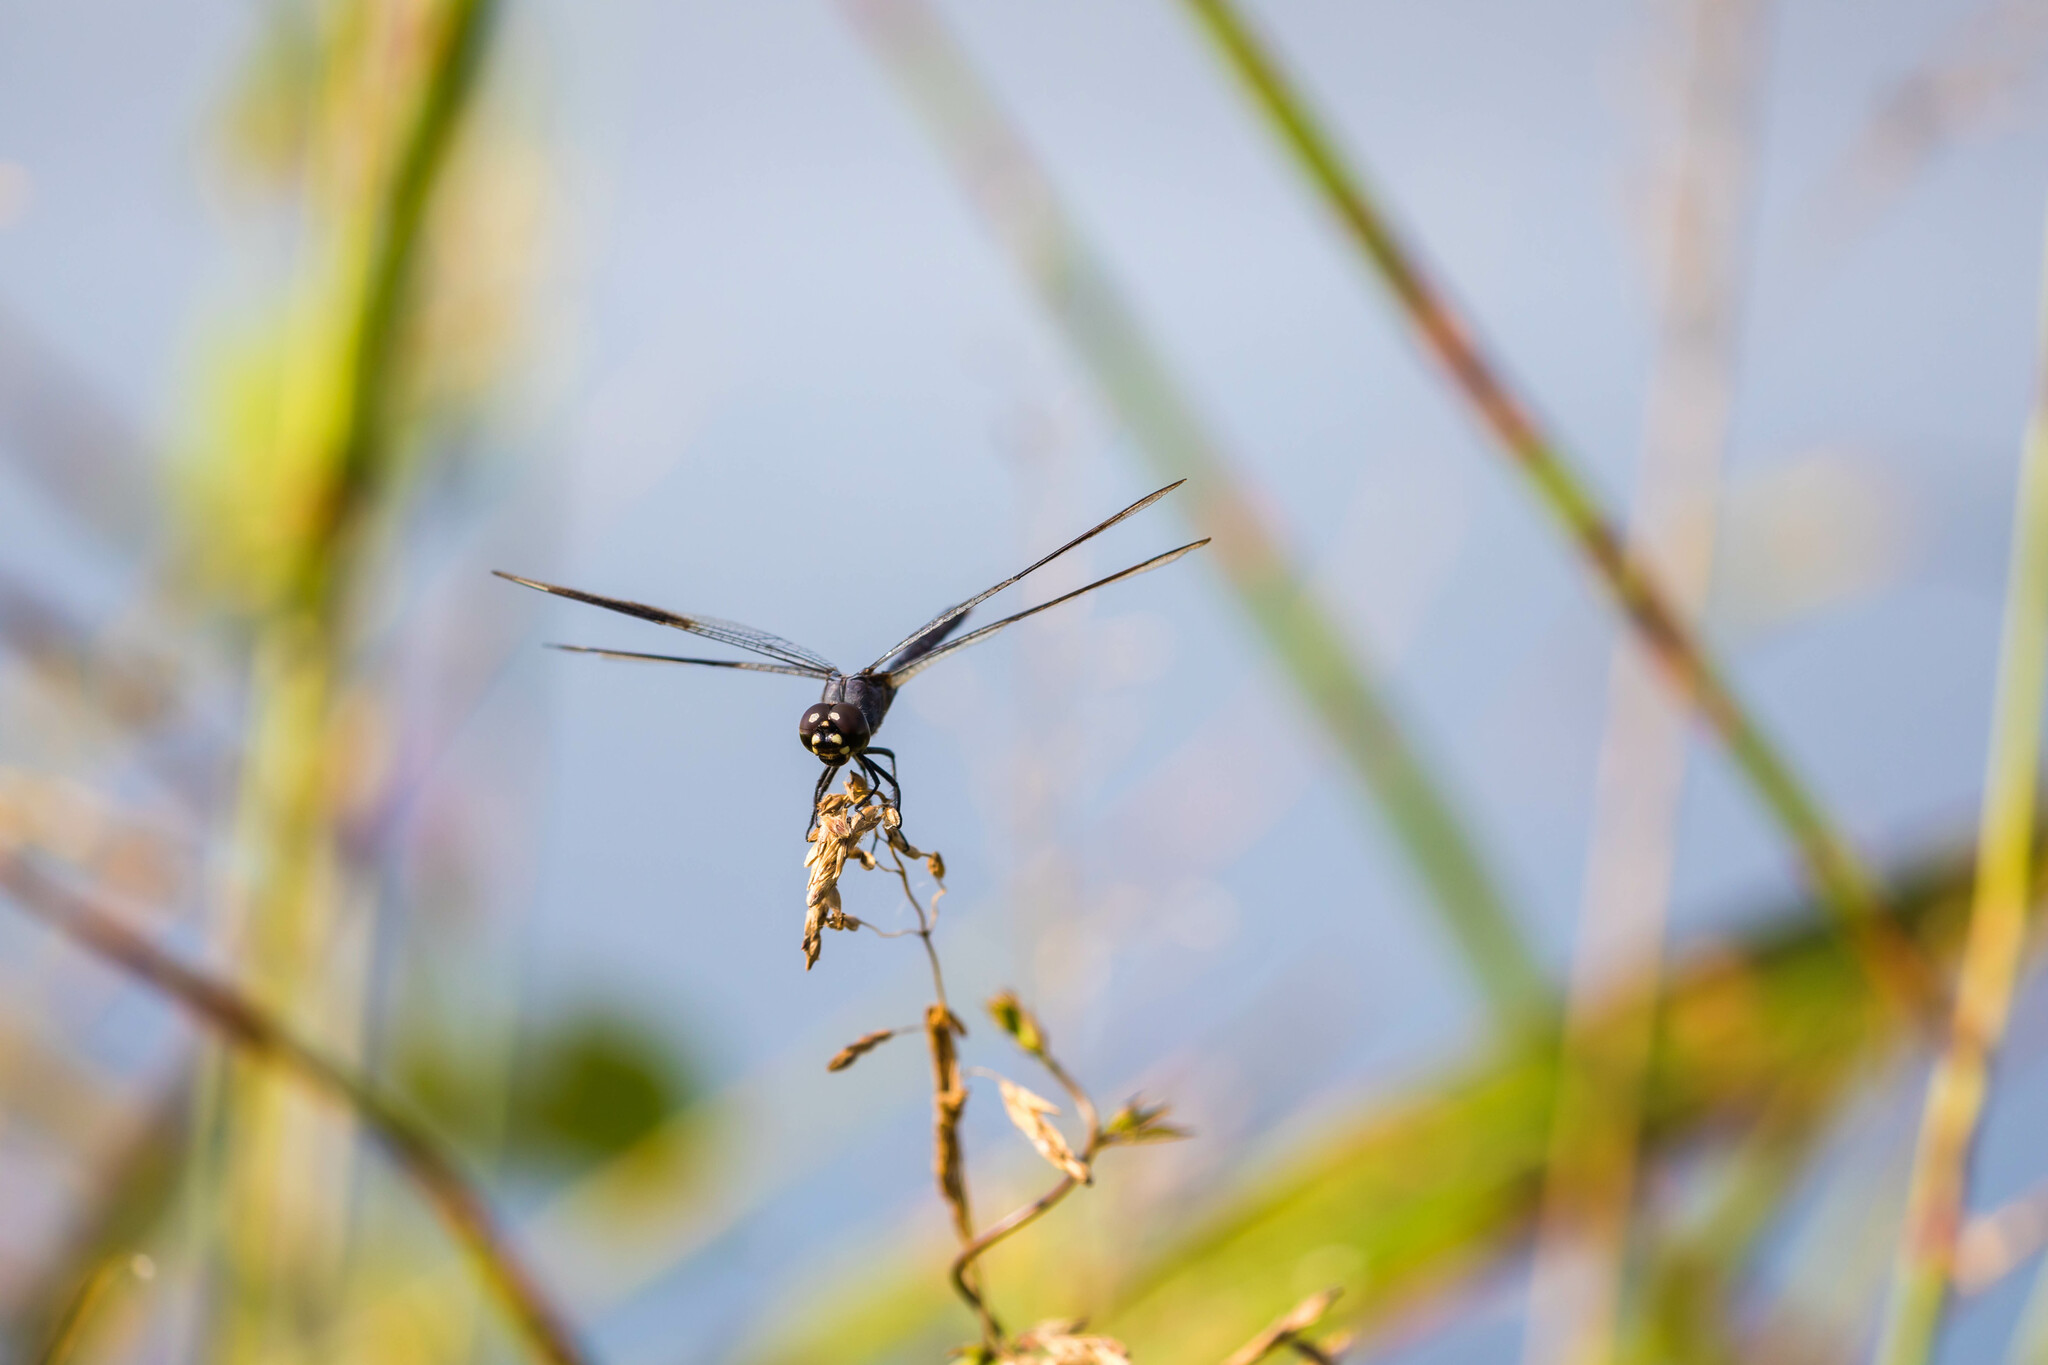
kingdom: Animalia
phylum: Arthropoda
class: Insecta
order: Odonata
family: Libellulidae
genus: Brachymesia
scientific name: Brachymesia gravida
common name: Four-spotted pennant
